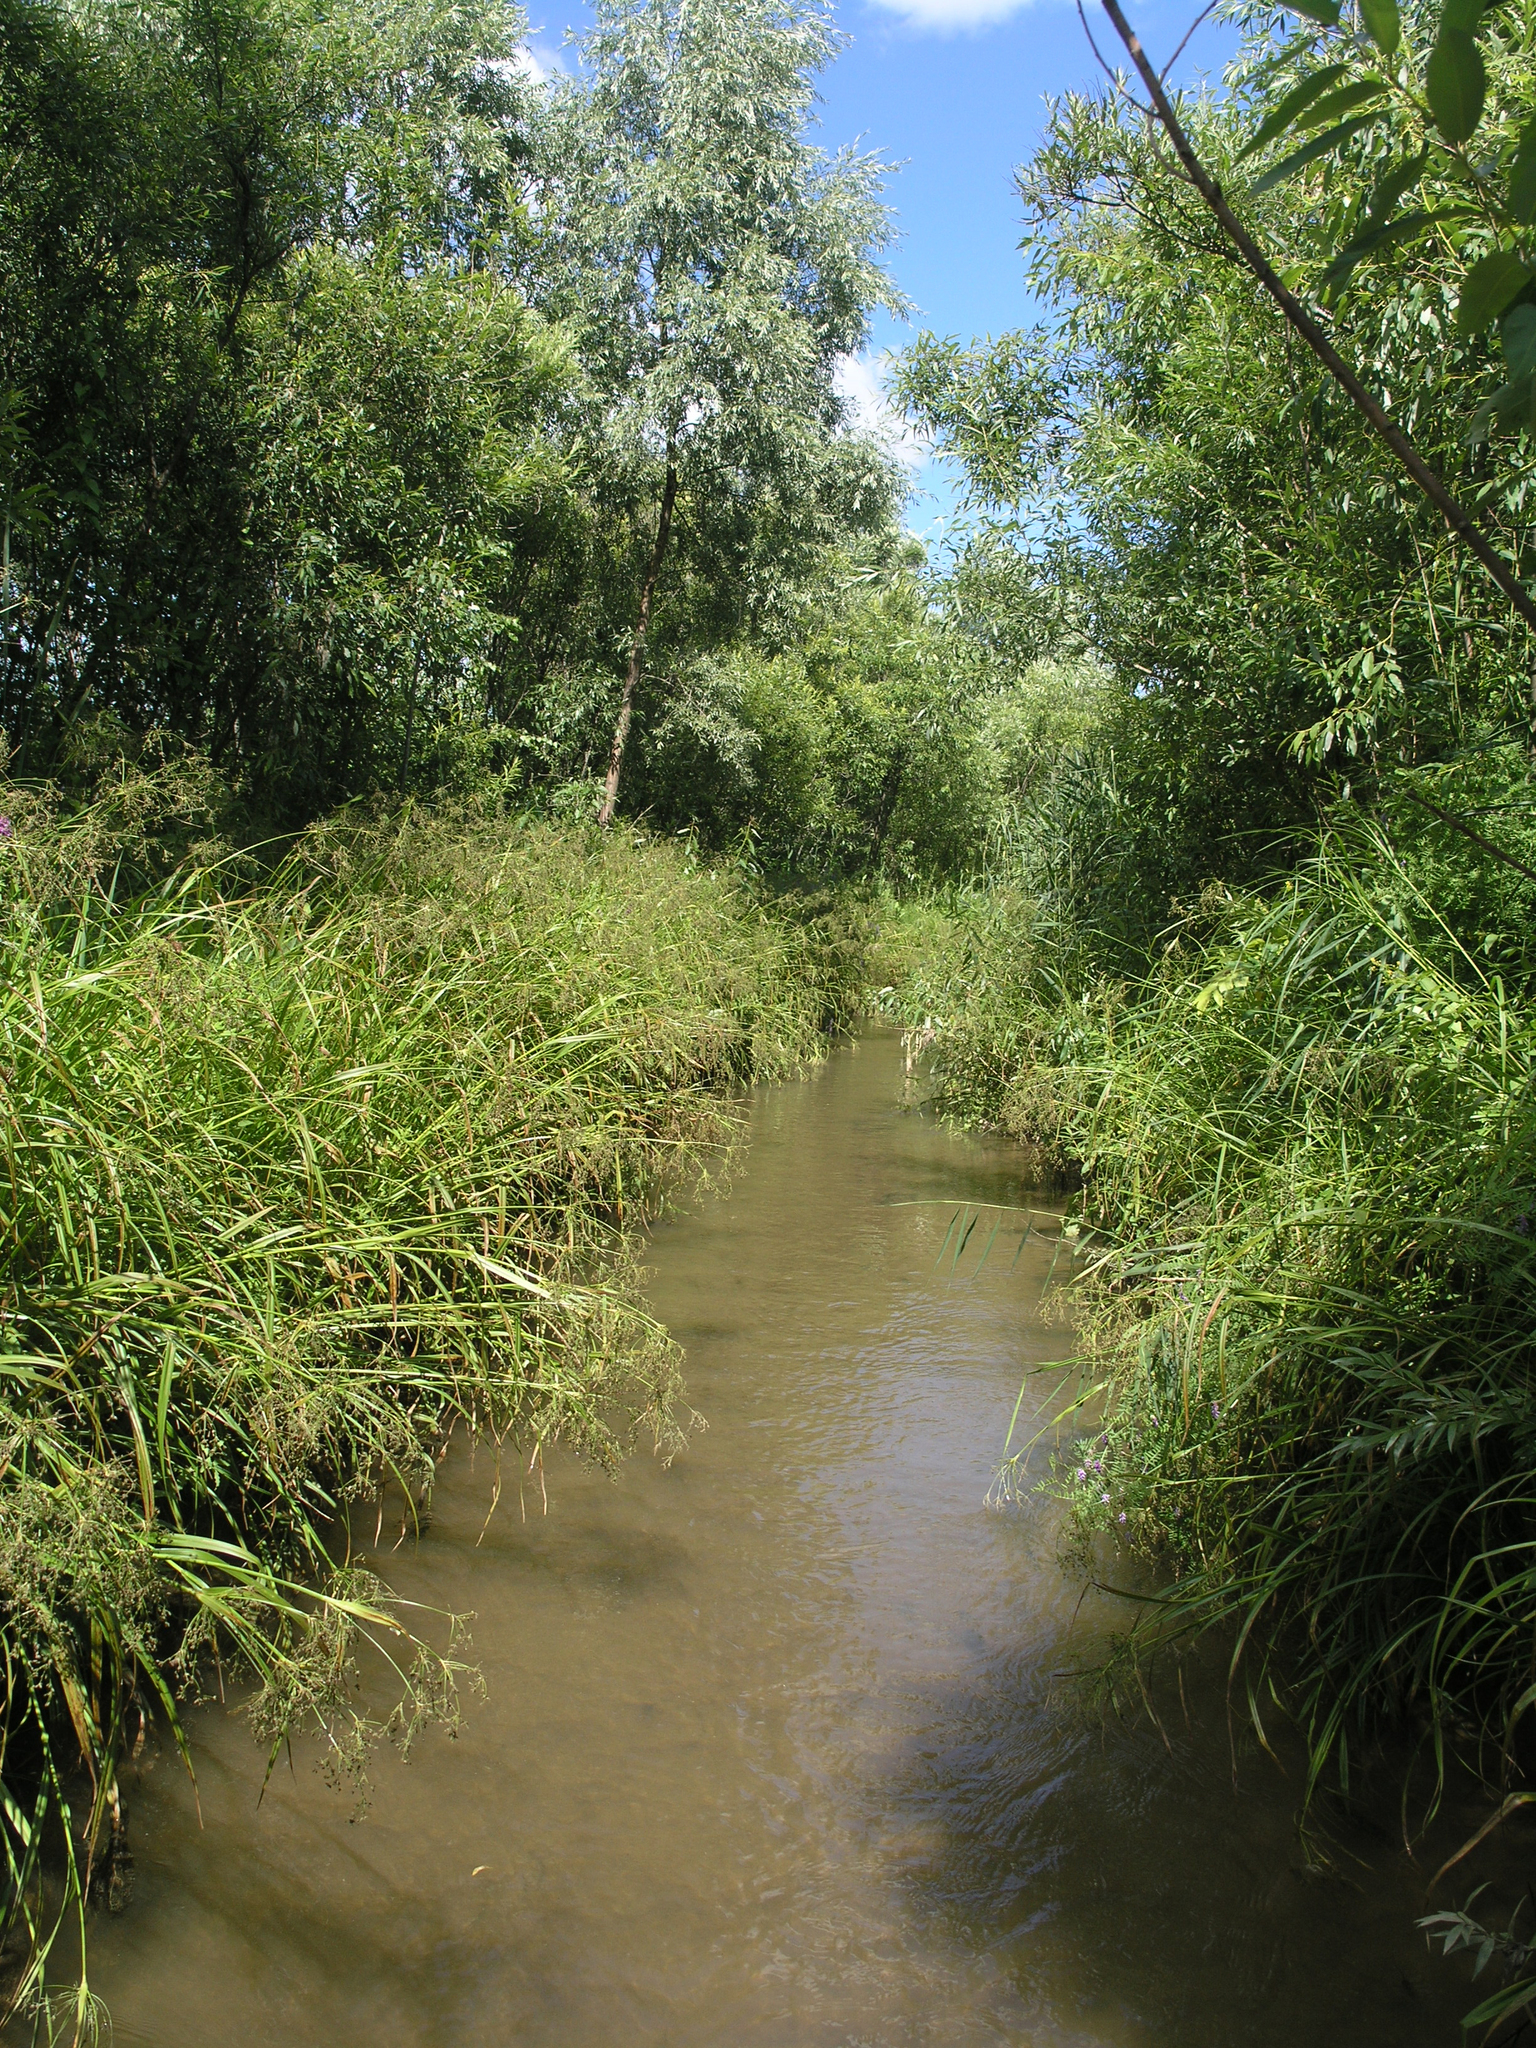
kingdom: Plantae
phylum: Tracheophyta
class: Liliopsida
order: Poales
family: Cyperaceae
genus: Scirpus
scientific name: Scirpus sylvaticus
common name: Wood club-rush
